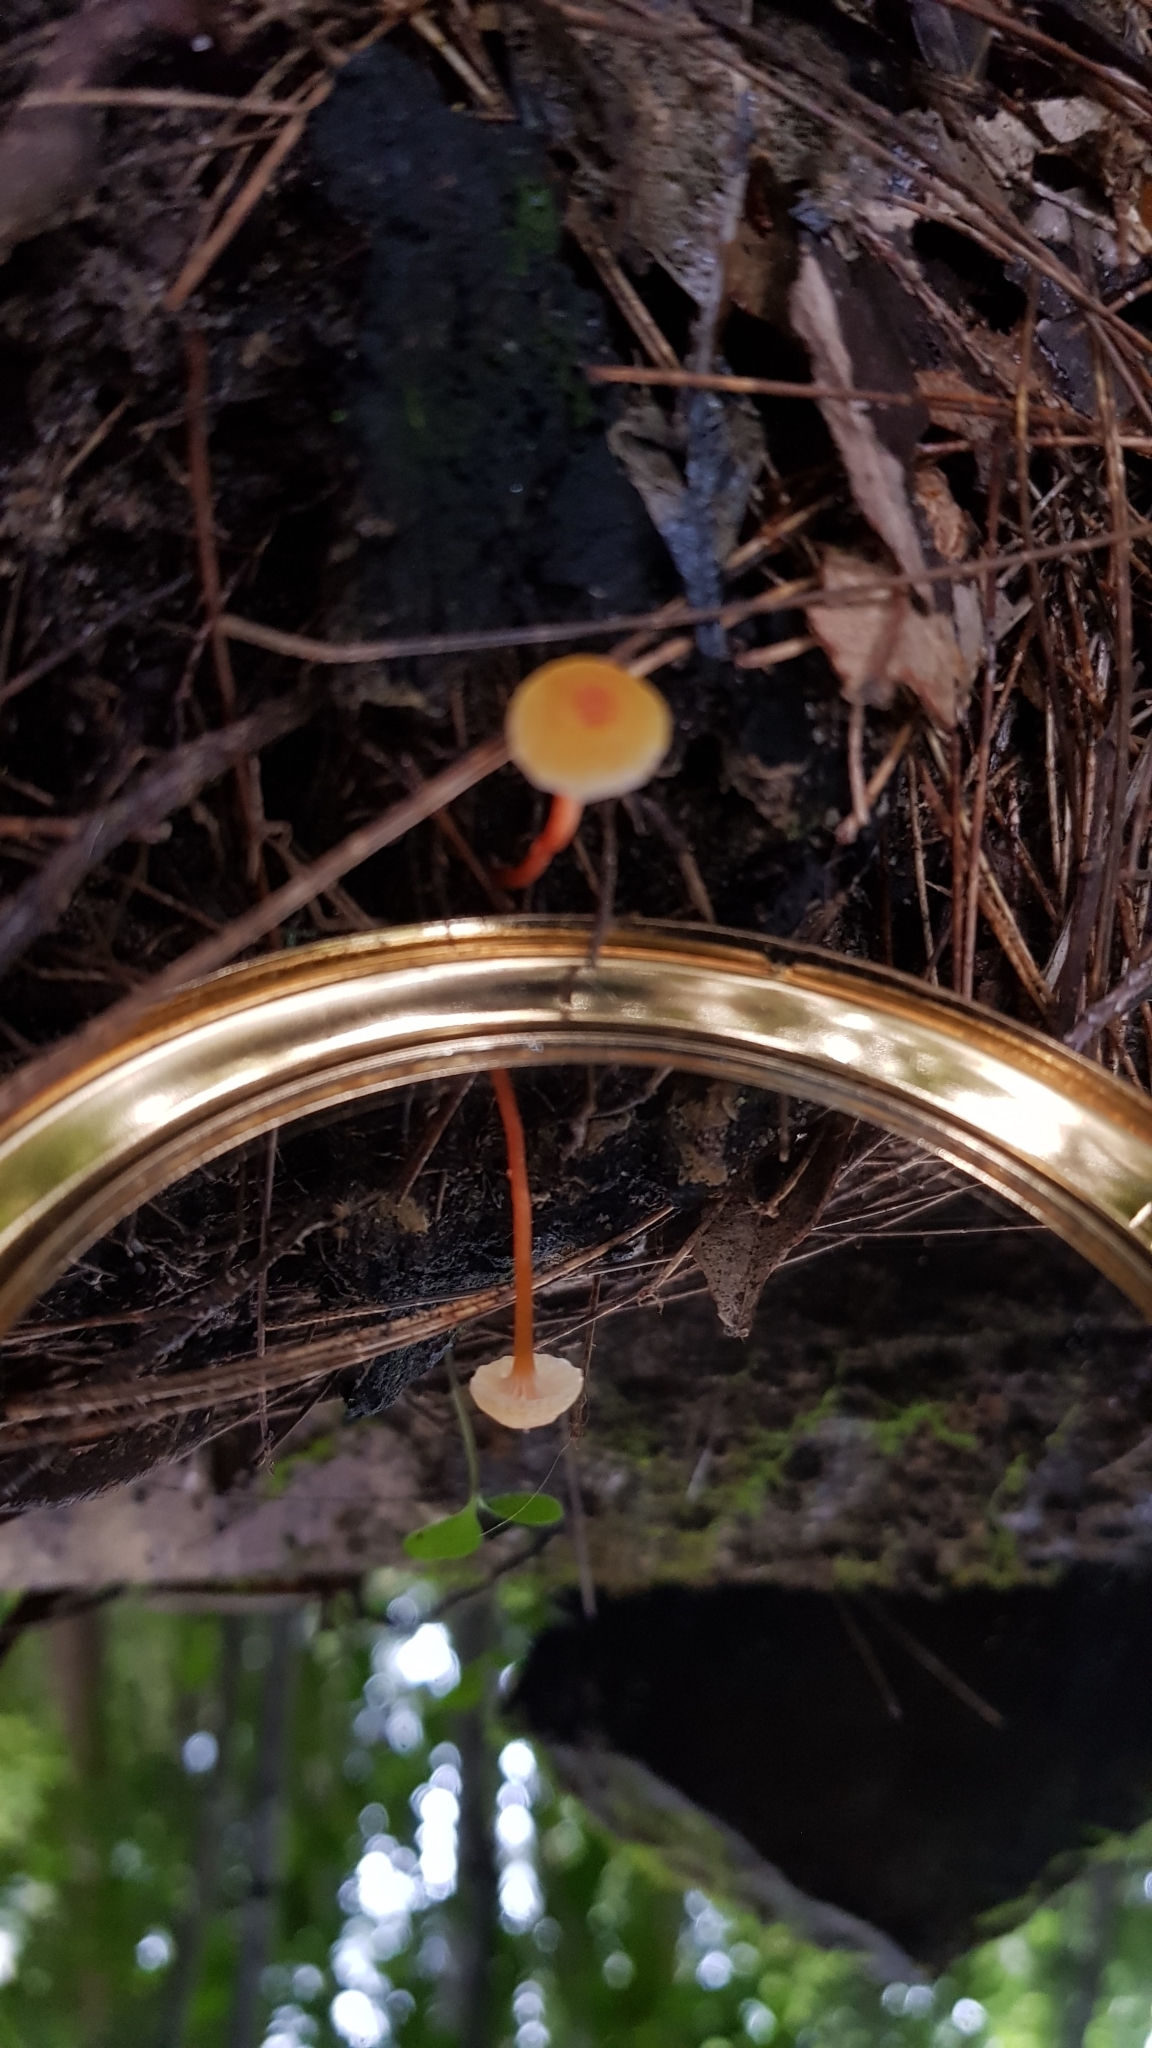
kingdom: Fungi
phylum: Basidiomycota
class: Agaricomycetes
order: Agaricales
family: Hygrophoraceae
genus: Hygrocybe
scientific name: Hygrocybe anomala
